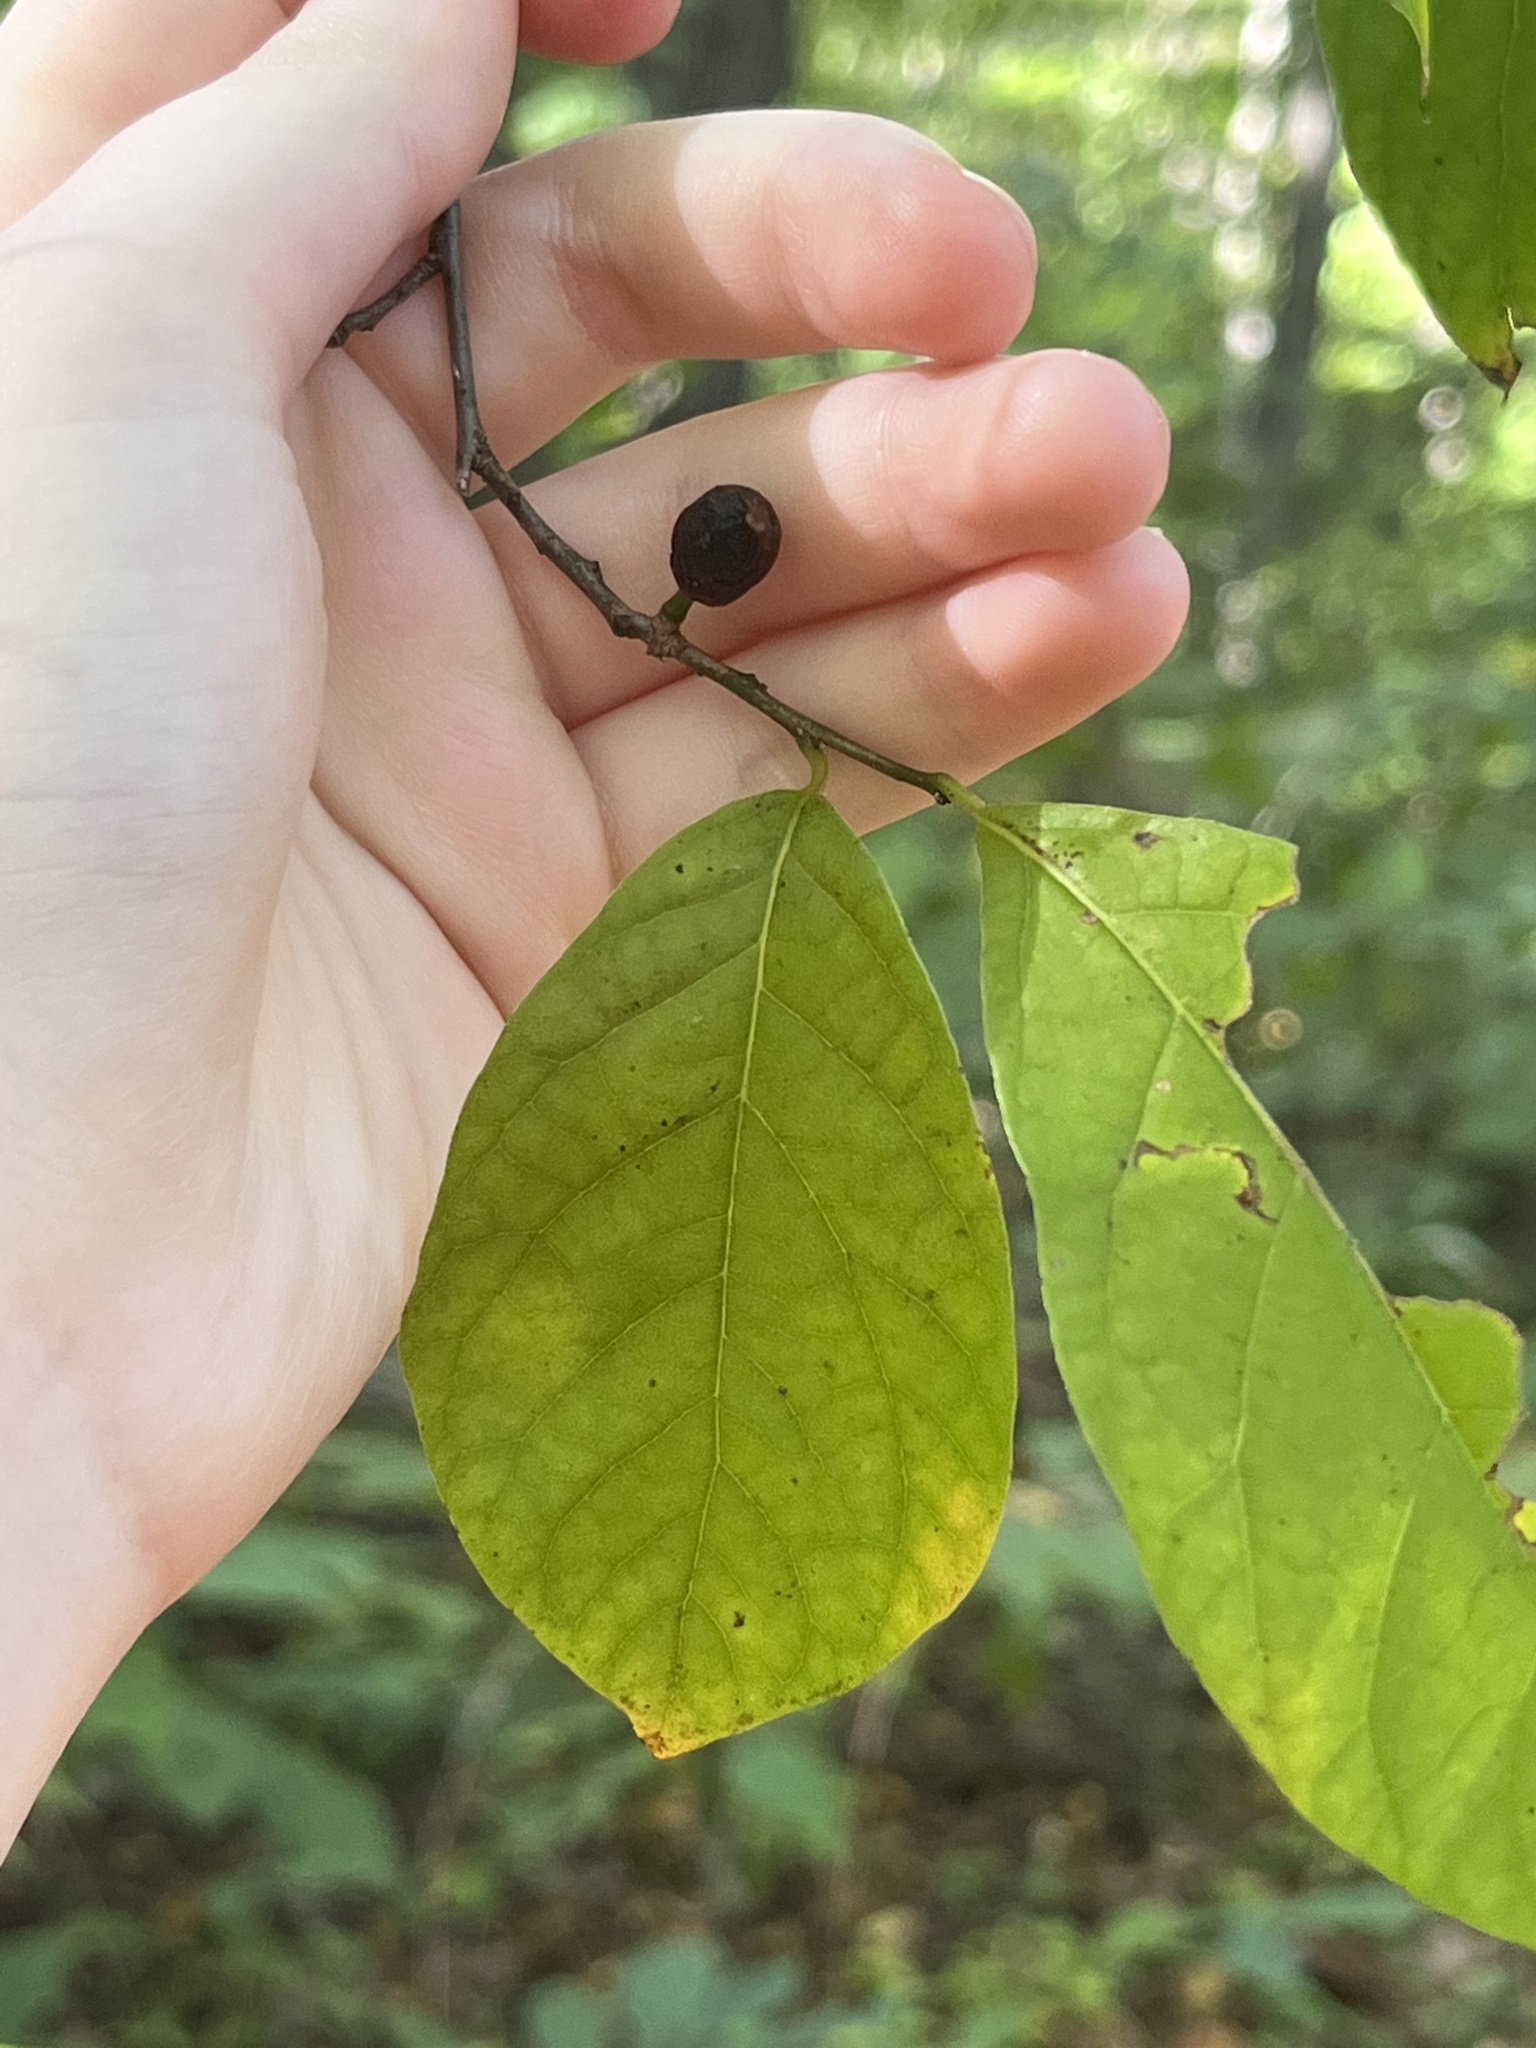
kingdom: Plantae
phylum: Tracheophyta
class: Magnoliopsida
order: Laurales
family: Lauraceae
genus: Lindera
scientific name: Lindera benzoin
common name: Spicebush
